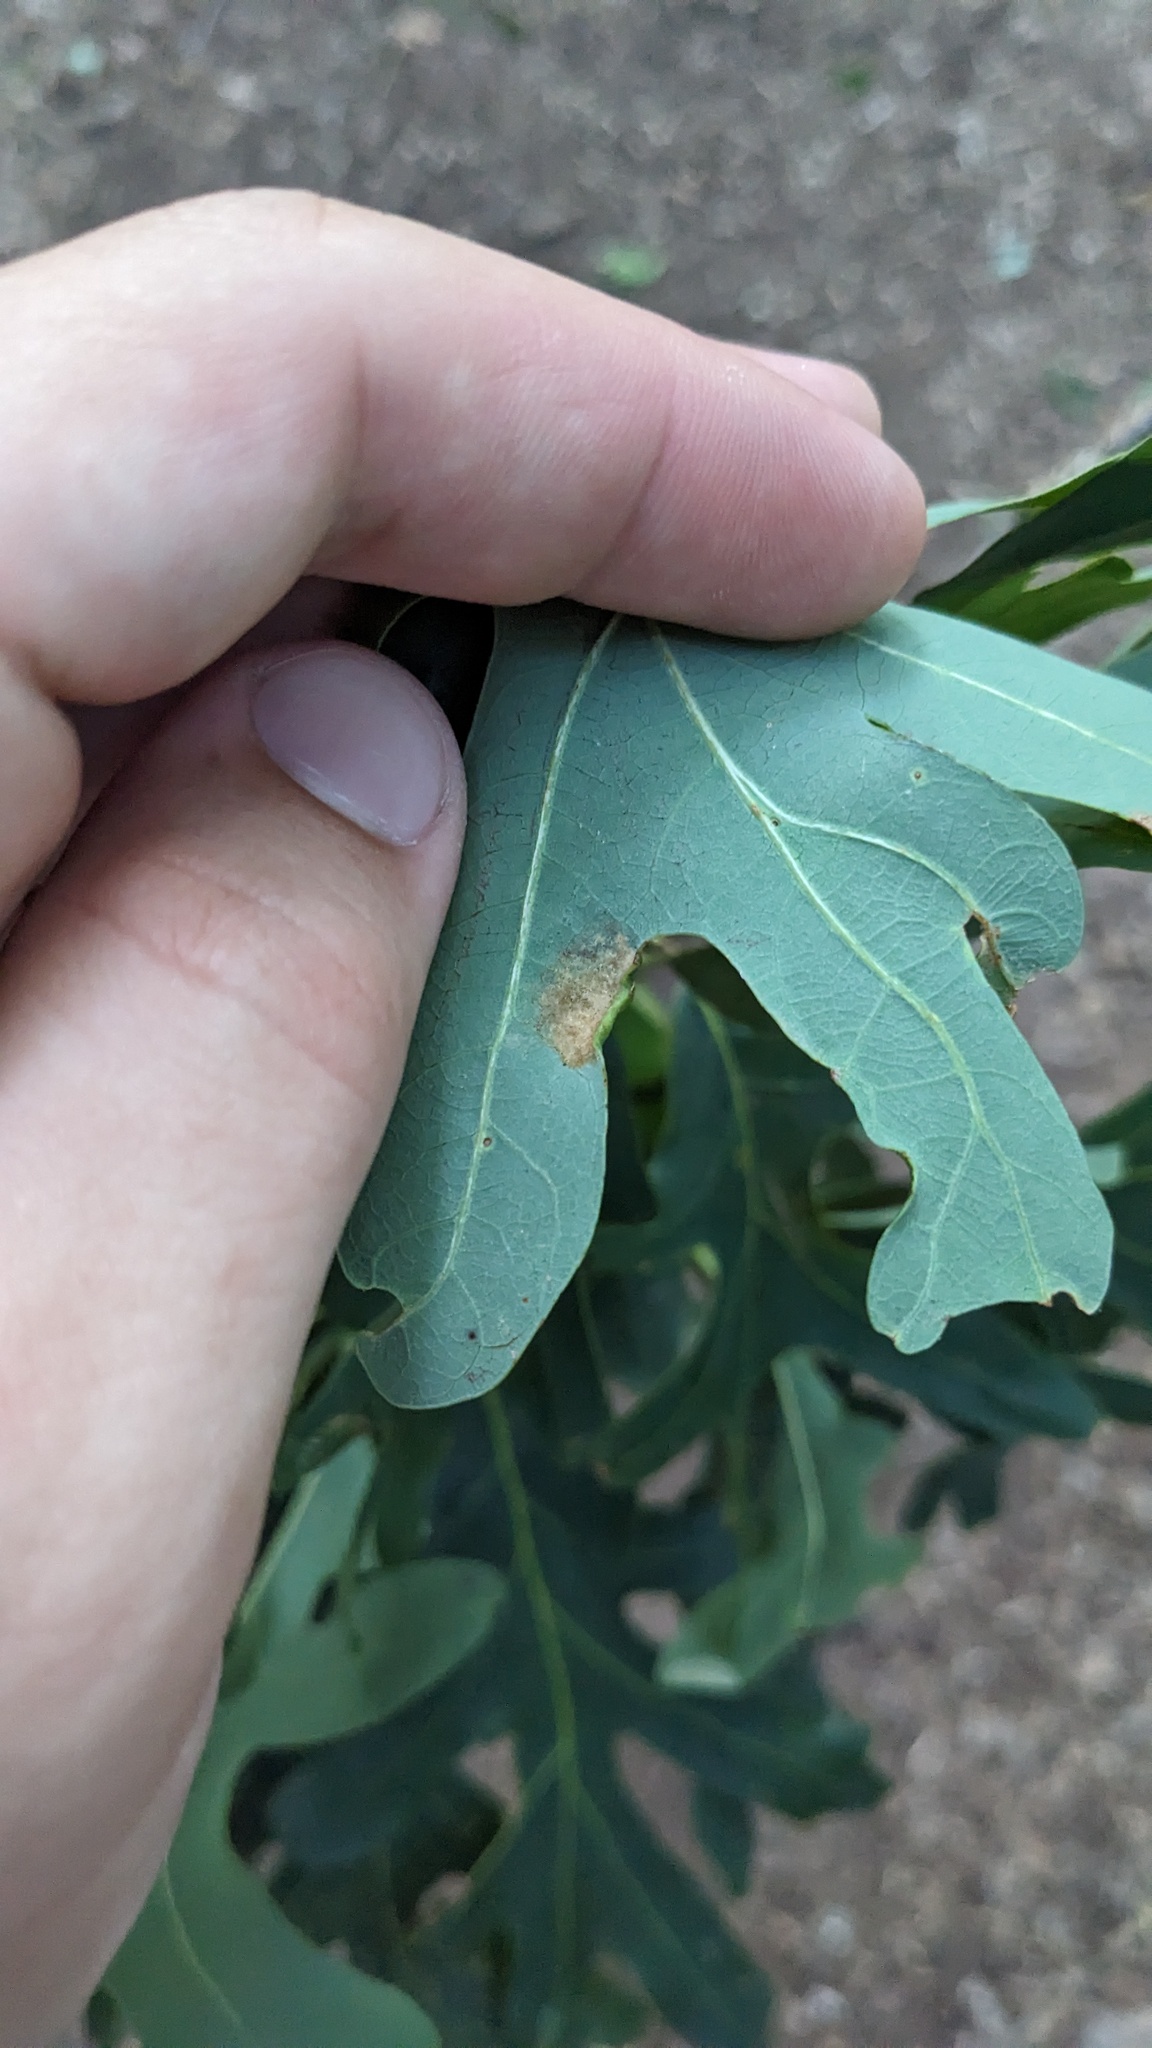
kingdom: Animalia
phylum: Arthropoda
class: Arachnida
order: Trombidiformes
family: Eriophyidae
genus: Aceria
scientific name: Aceria
